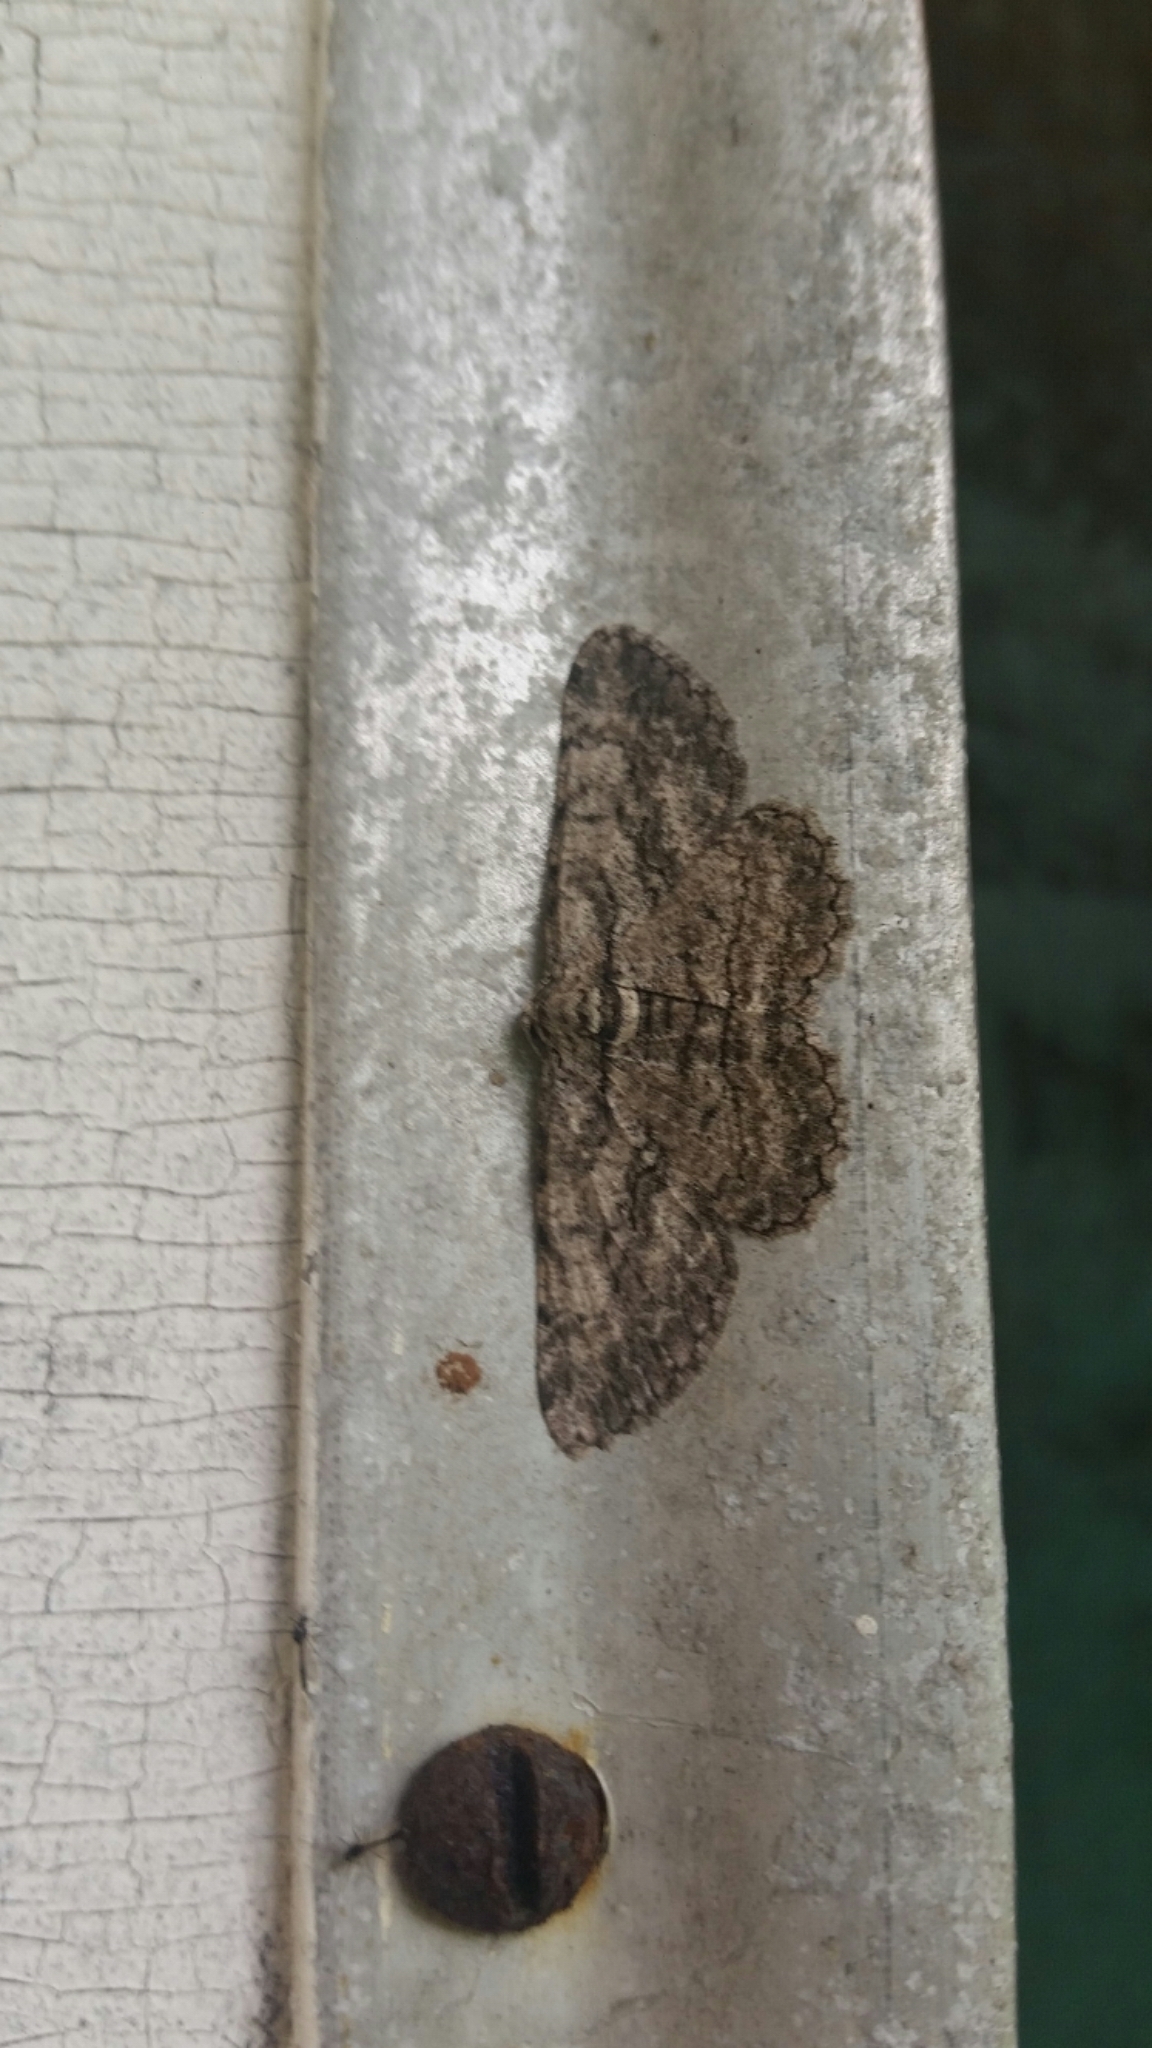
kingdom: Animalia
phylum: Arthropoda
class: Insecta
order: Lepidoptera
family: Geometridae
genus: Anavitrinella
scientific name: Anavitrinella pampinaria
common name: Common gray
